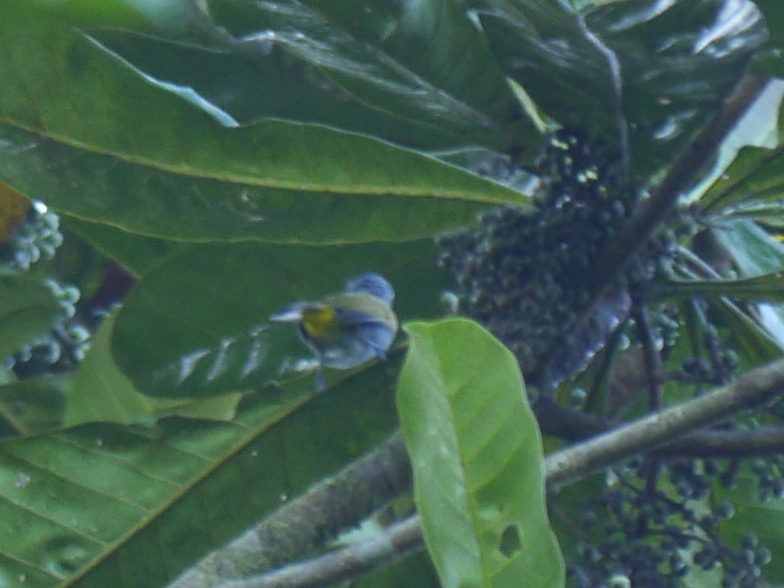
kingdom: Animalia
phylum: Chordata
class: Aves
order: Passeriformes
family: Pycnonotidae
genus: Rubigula
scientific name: Rubigula cyaniventris
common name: Gray-bellied bulbul
